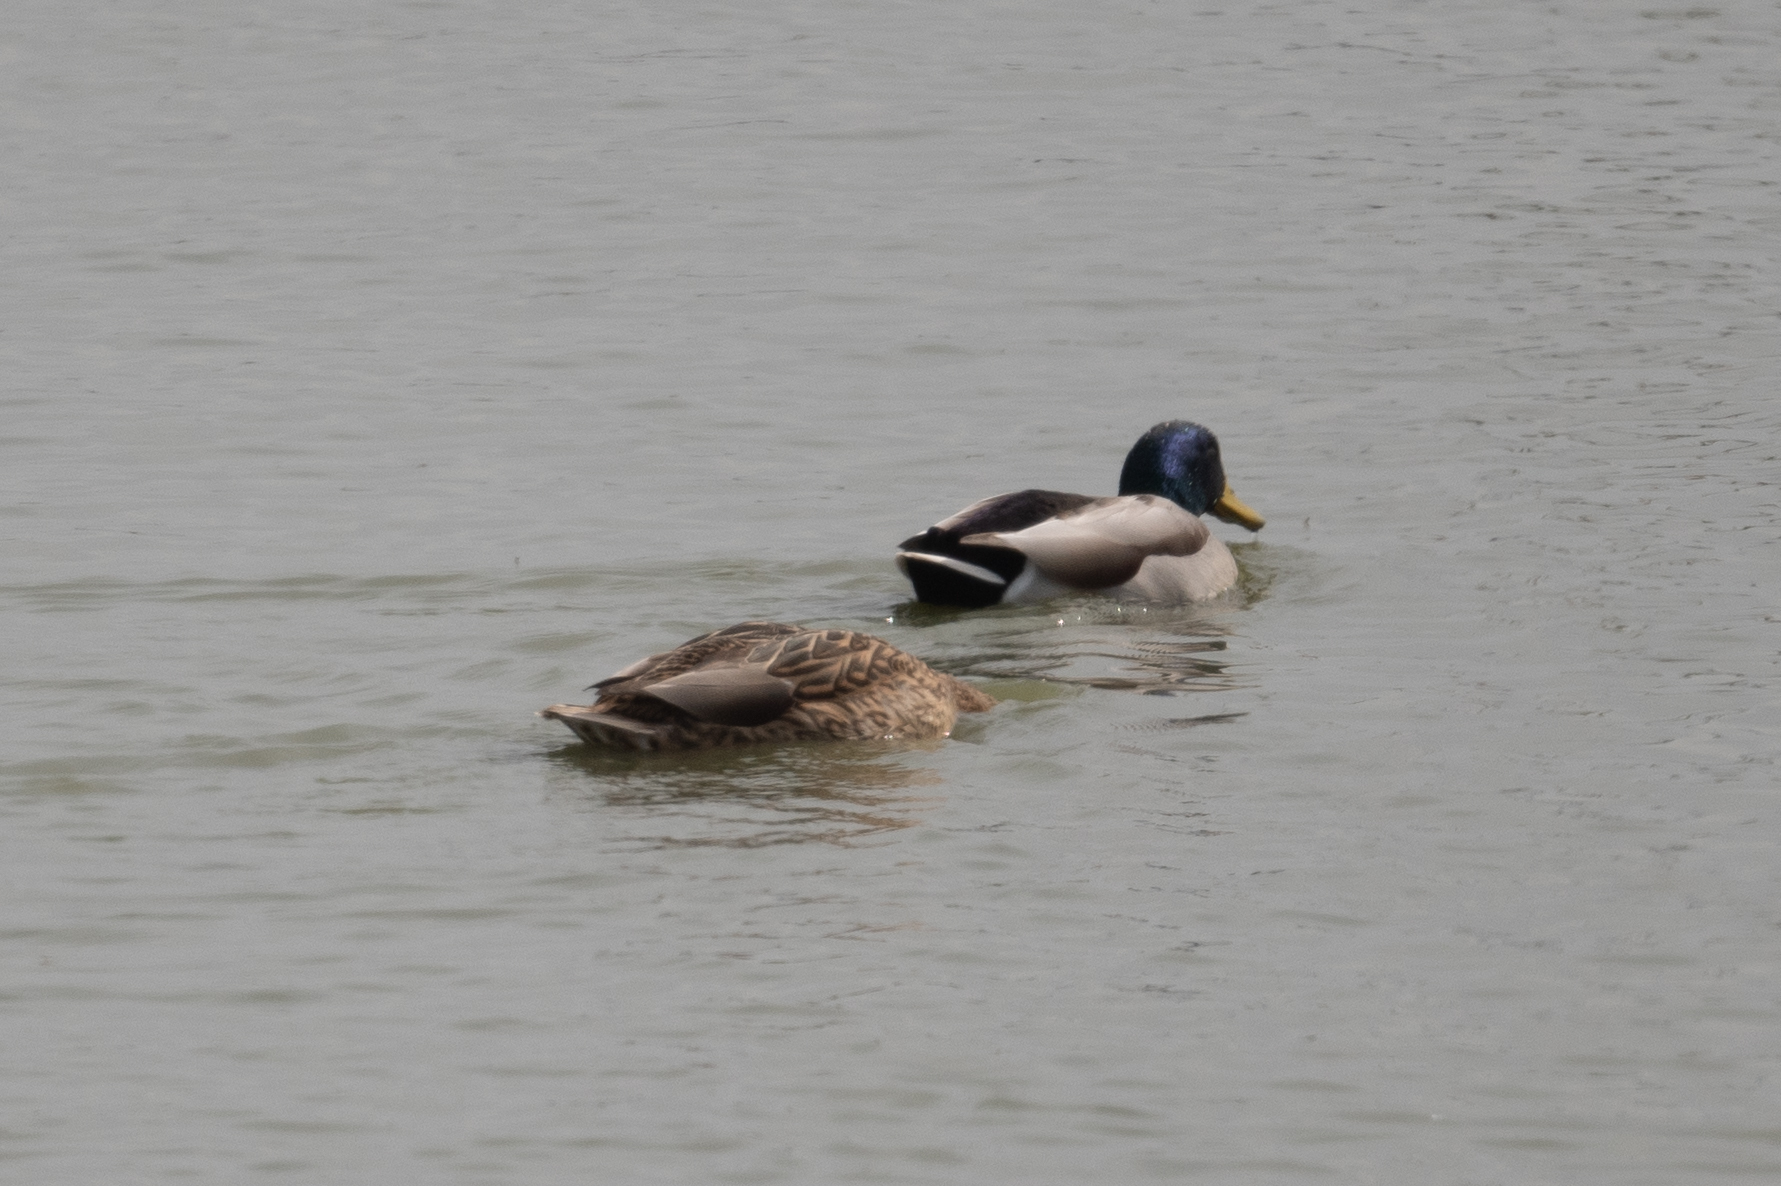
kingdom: Animalia
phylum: Chordata
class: Aves
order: Anseriformes
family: Anatidae
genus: Anas
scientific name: Anas platyrhynchos
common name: Mallard
